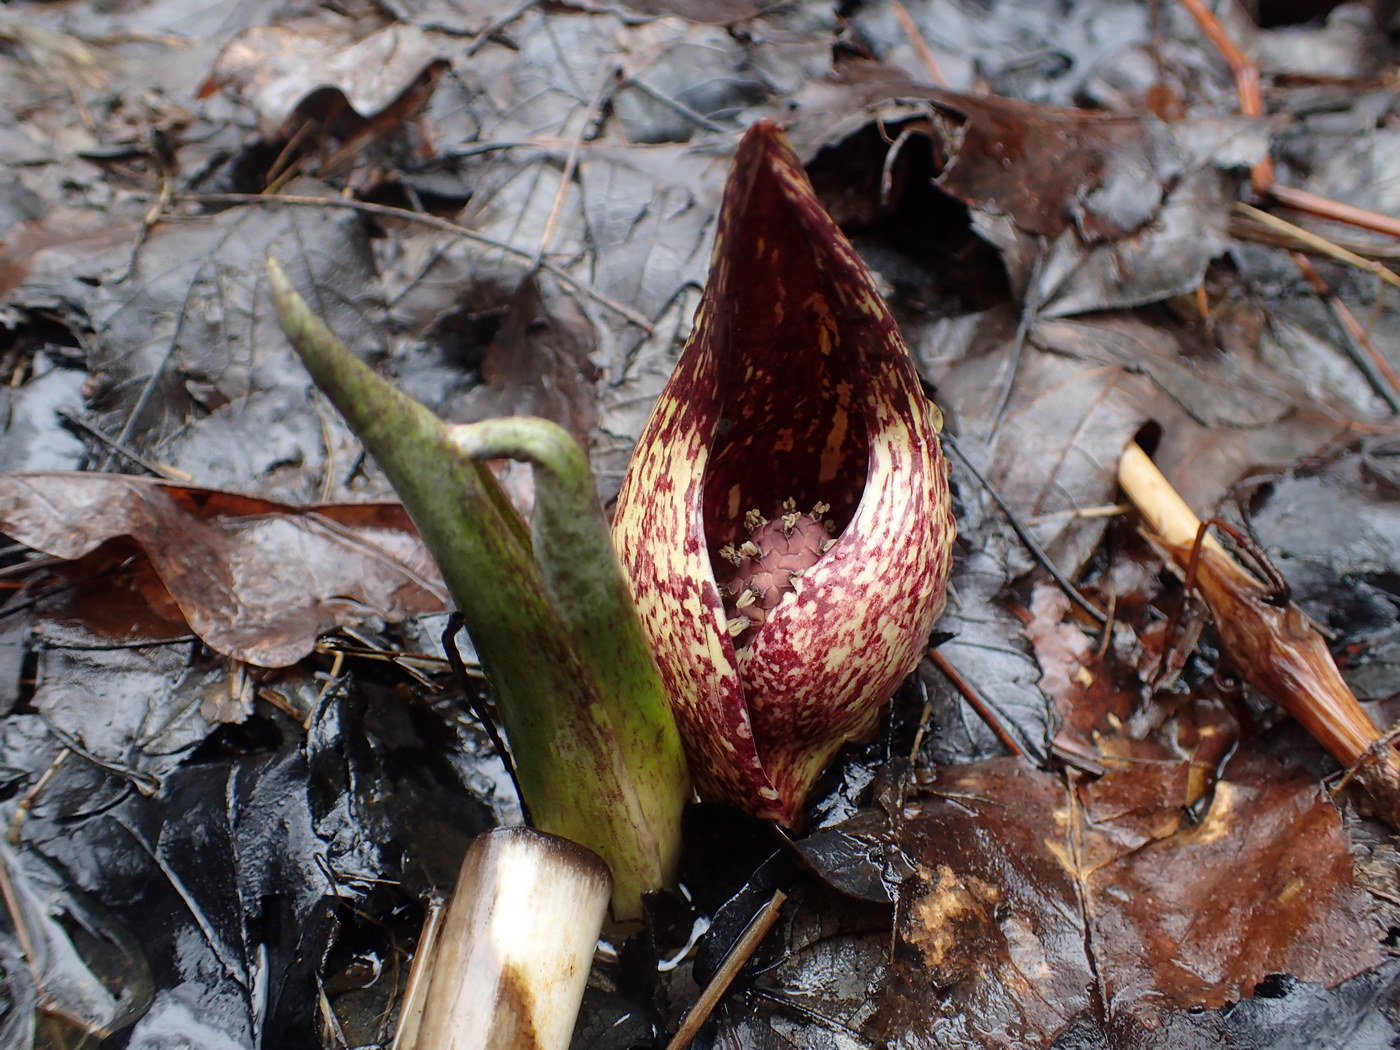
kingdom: Plantae
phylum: Tracheophyta
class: Liliopsida
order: Alismatales
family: Araceae
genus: Symplocarpus
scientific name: Symplocarpus foetidus
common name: Eastern skunk cabbage
